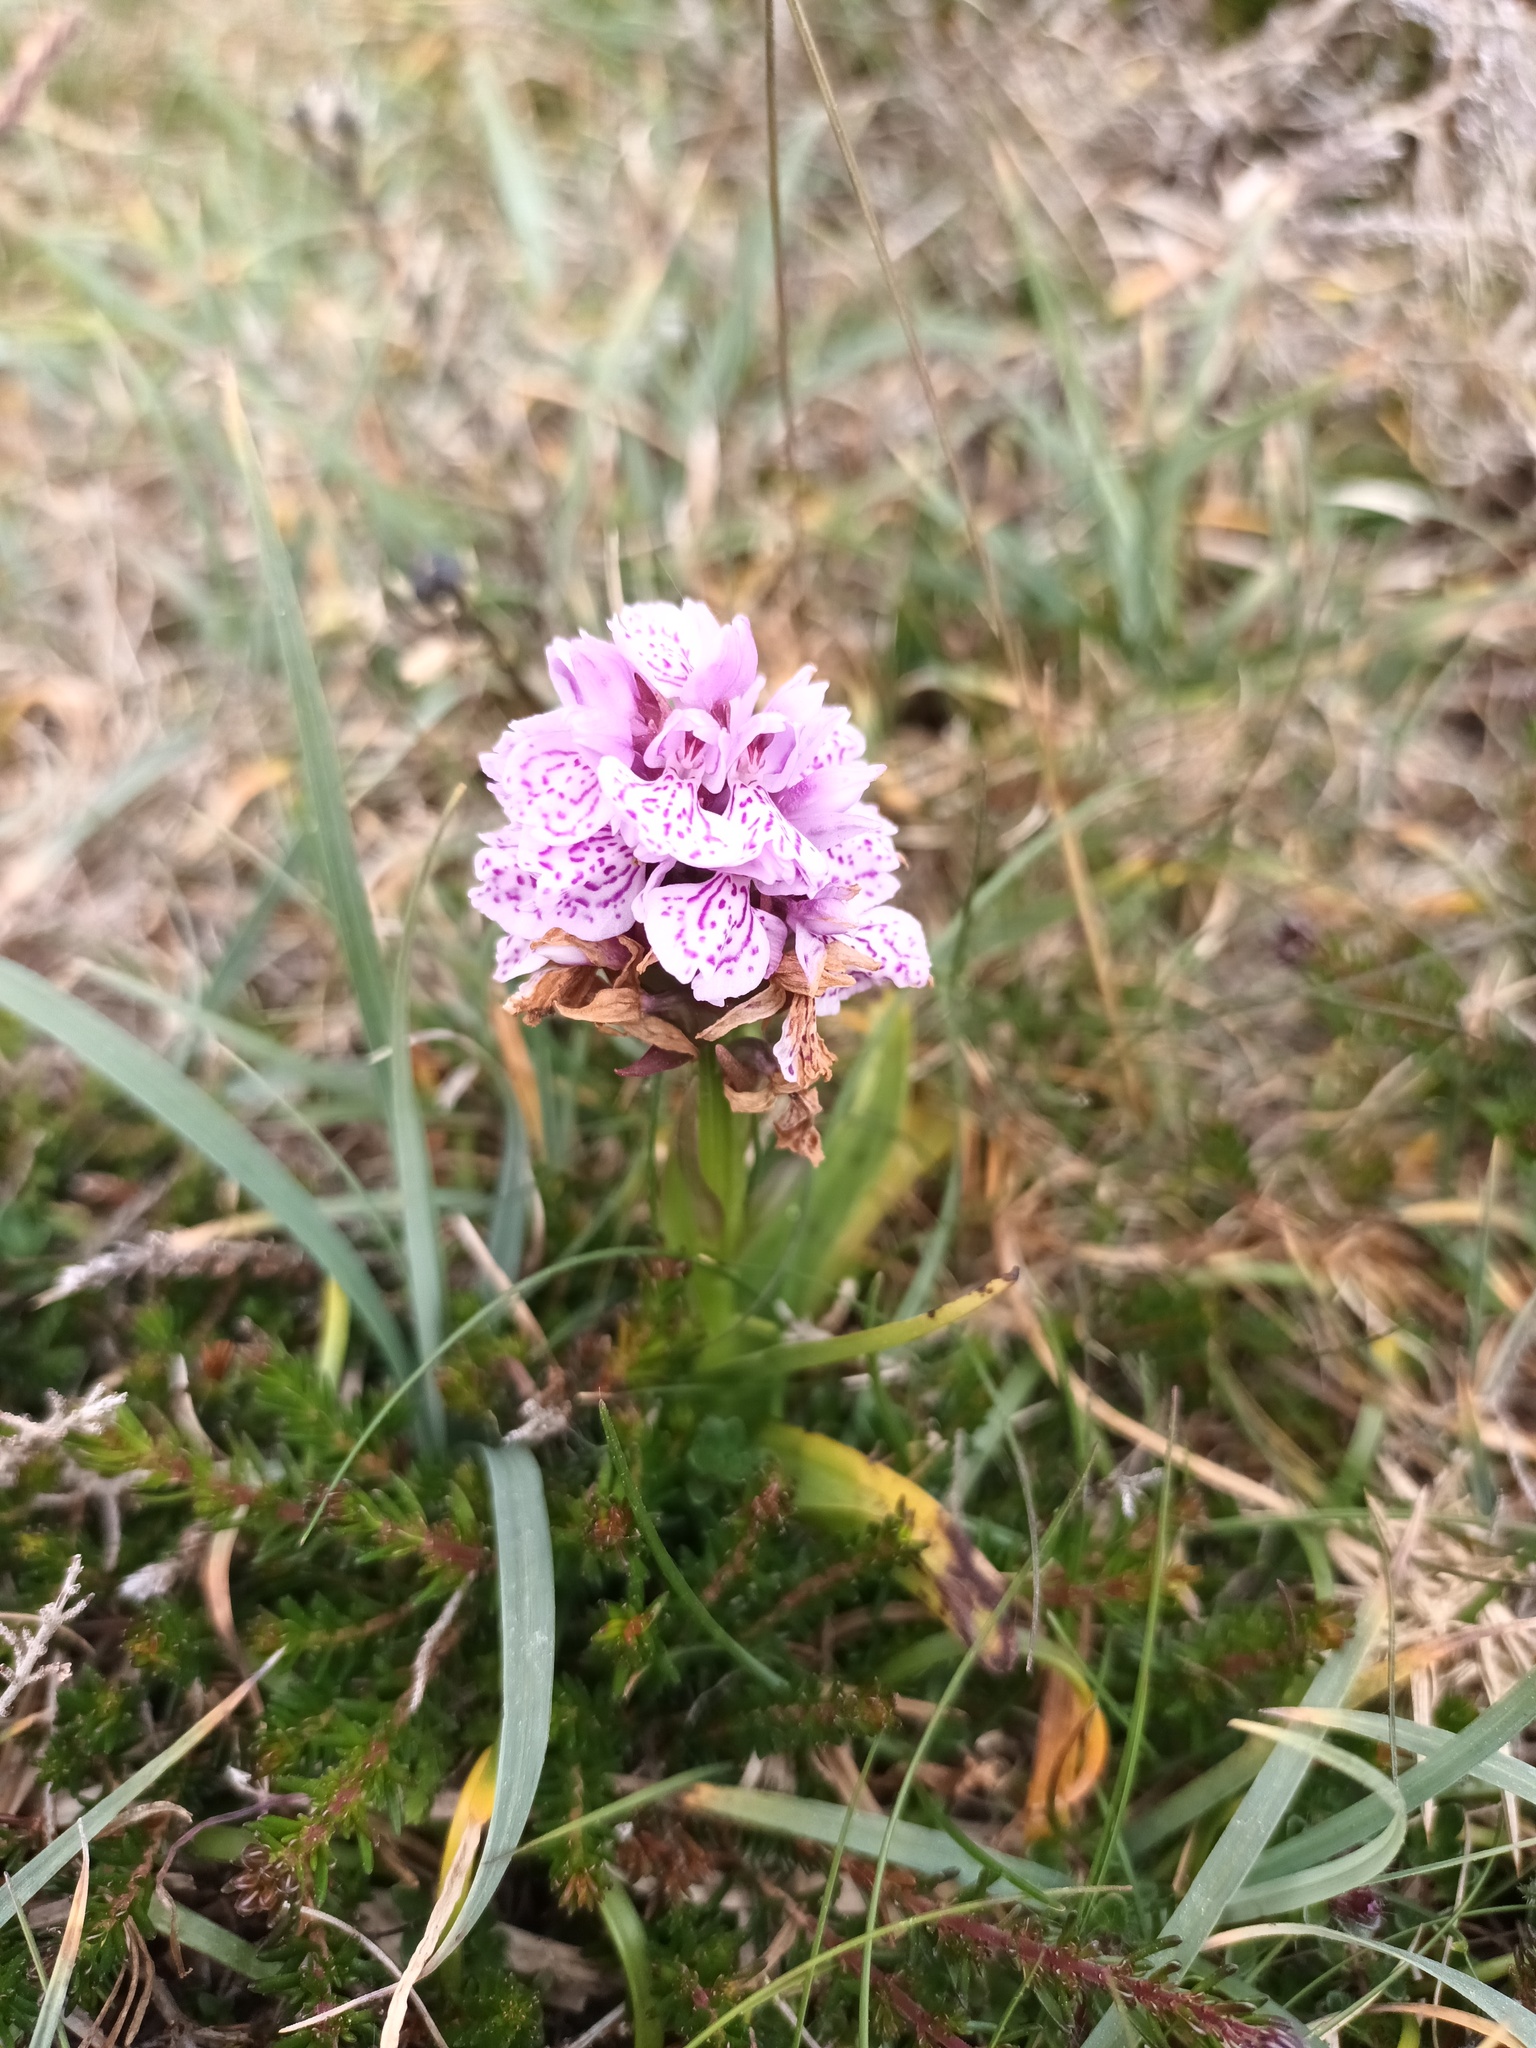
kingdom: Plantae
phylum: Tracheophyta
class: Liliopsida
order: Asparagales
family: Orchidaceae
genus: Dactylorhiza
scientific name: Dactylorhiza maculata
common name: Heath spotted-orchid
